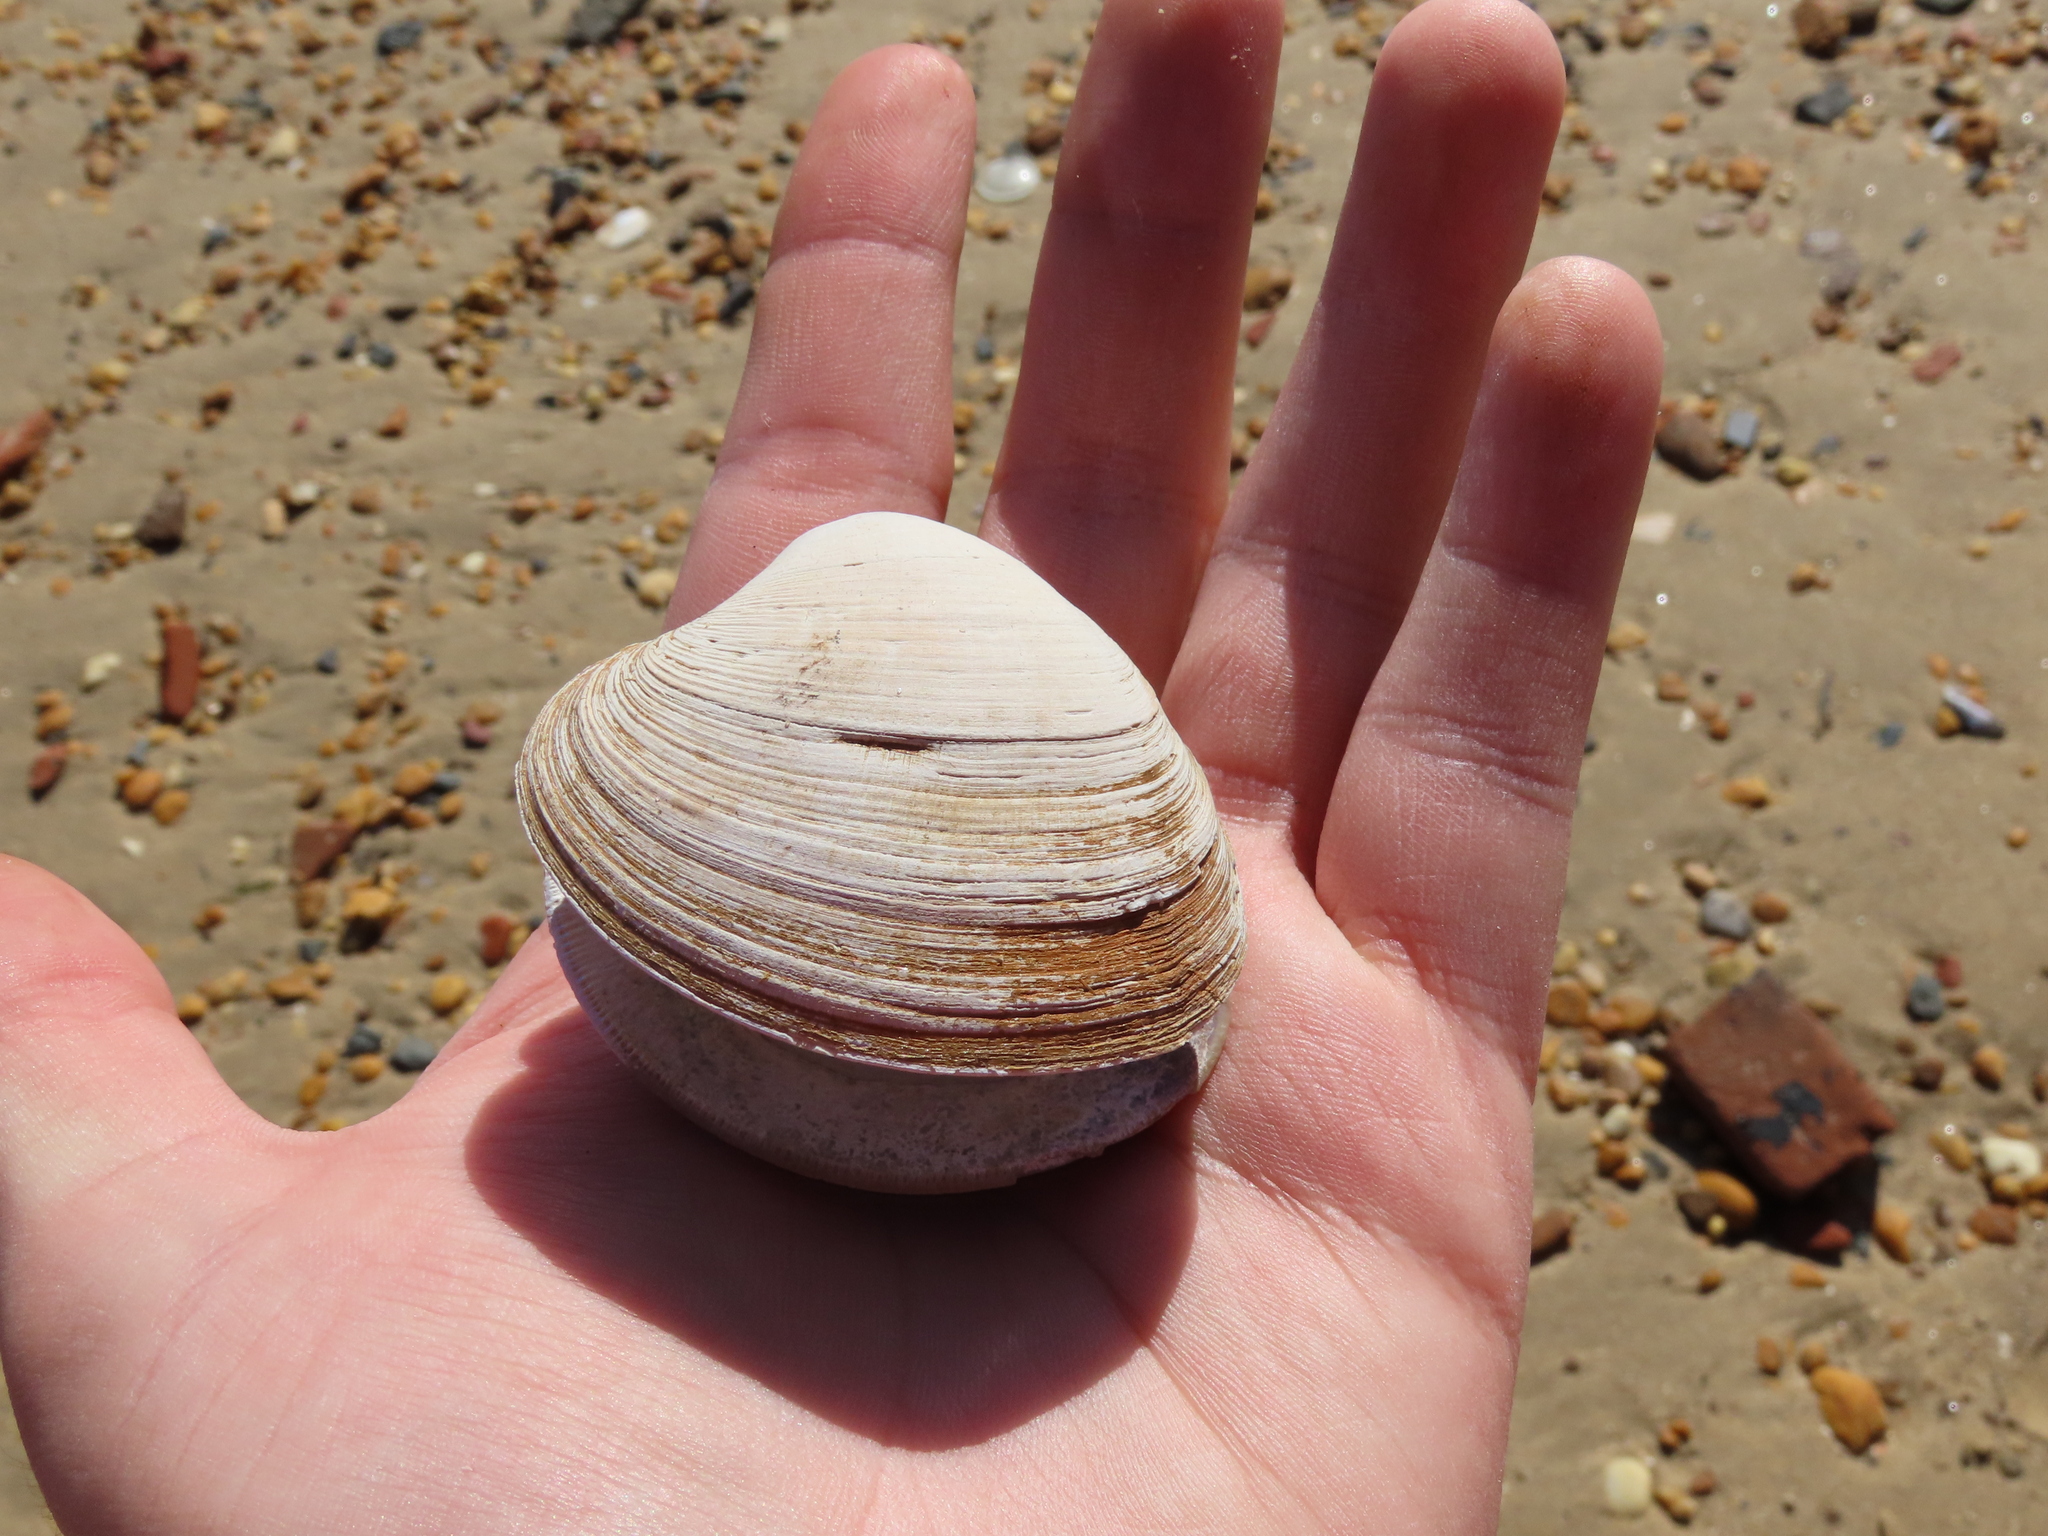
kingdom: Animalia
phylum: Mollusca
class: Bivalvia
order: Venerida
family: Veneridae
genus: Mercenaria
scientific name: Mercenaria mercenaria
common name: American hard-shelled clam
